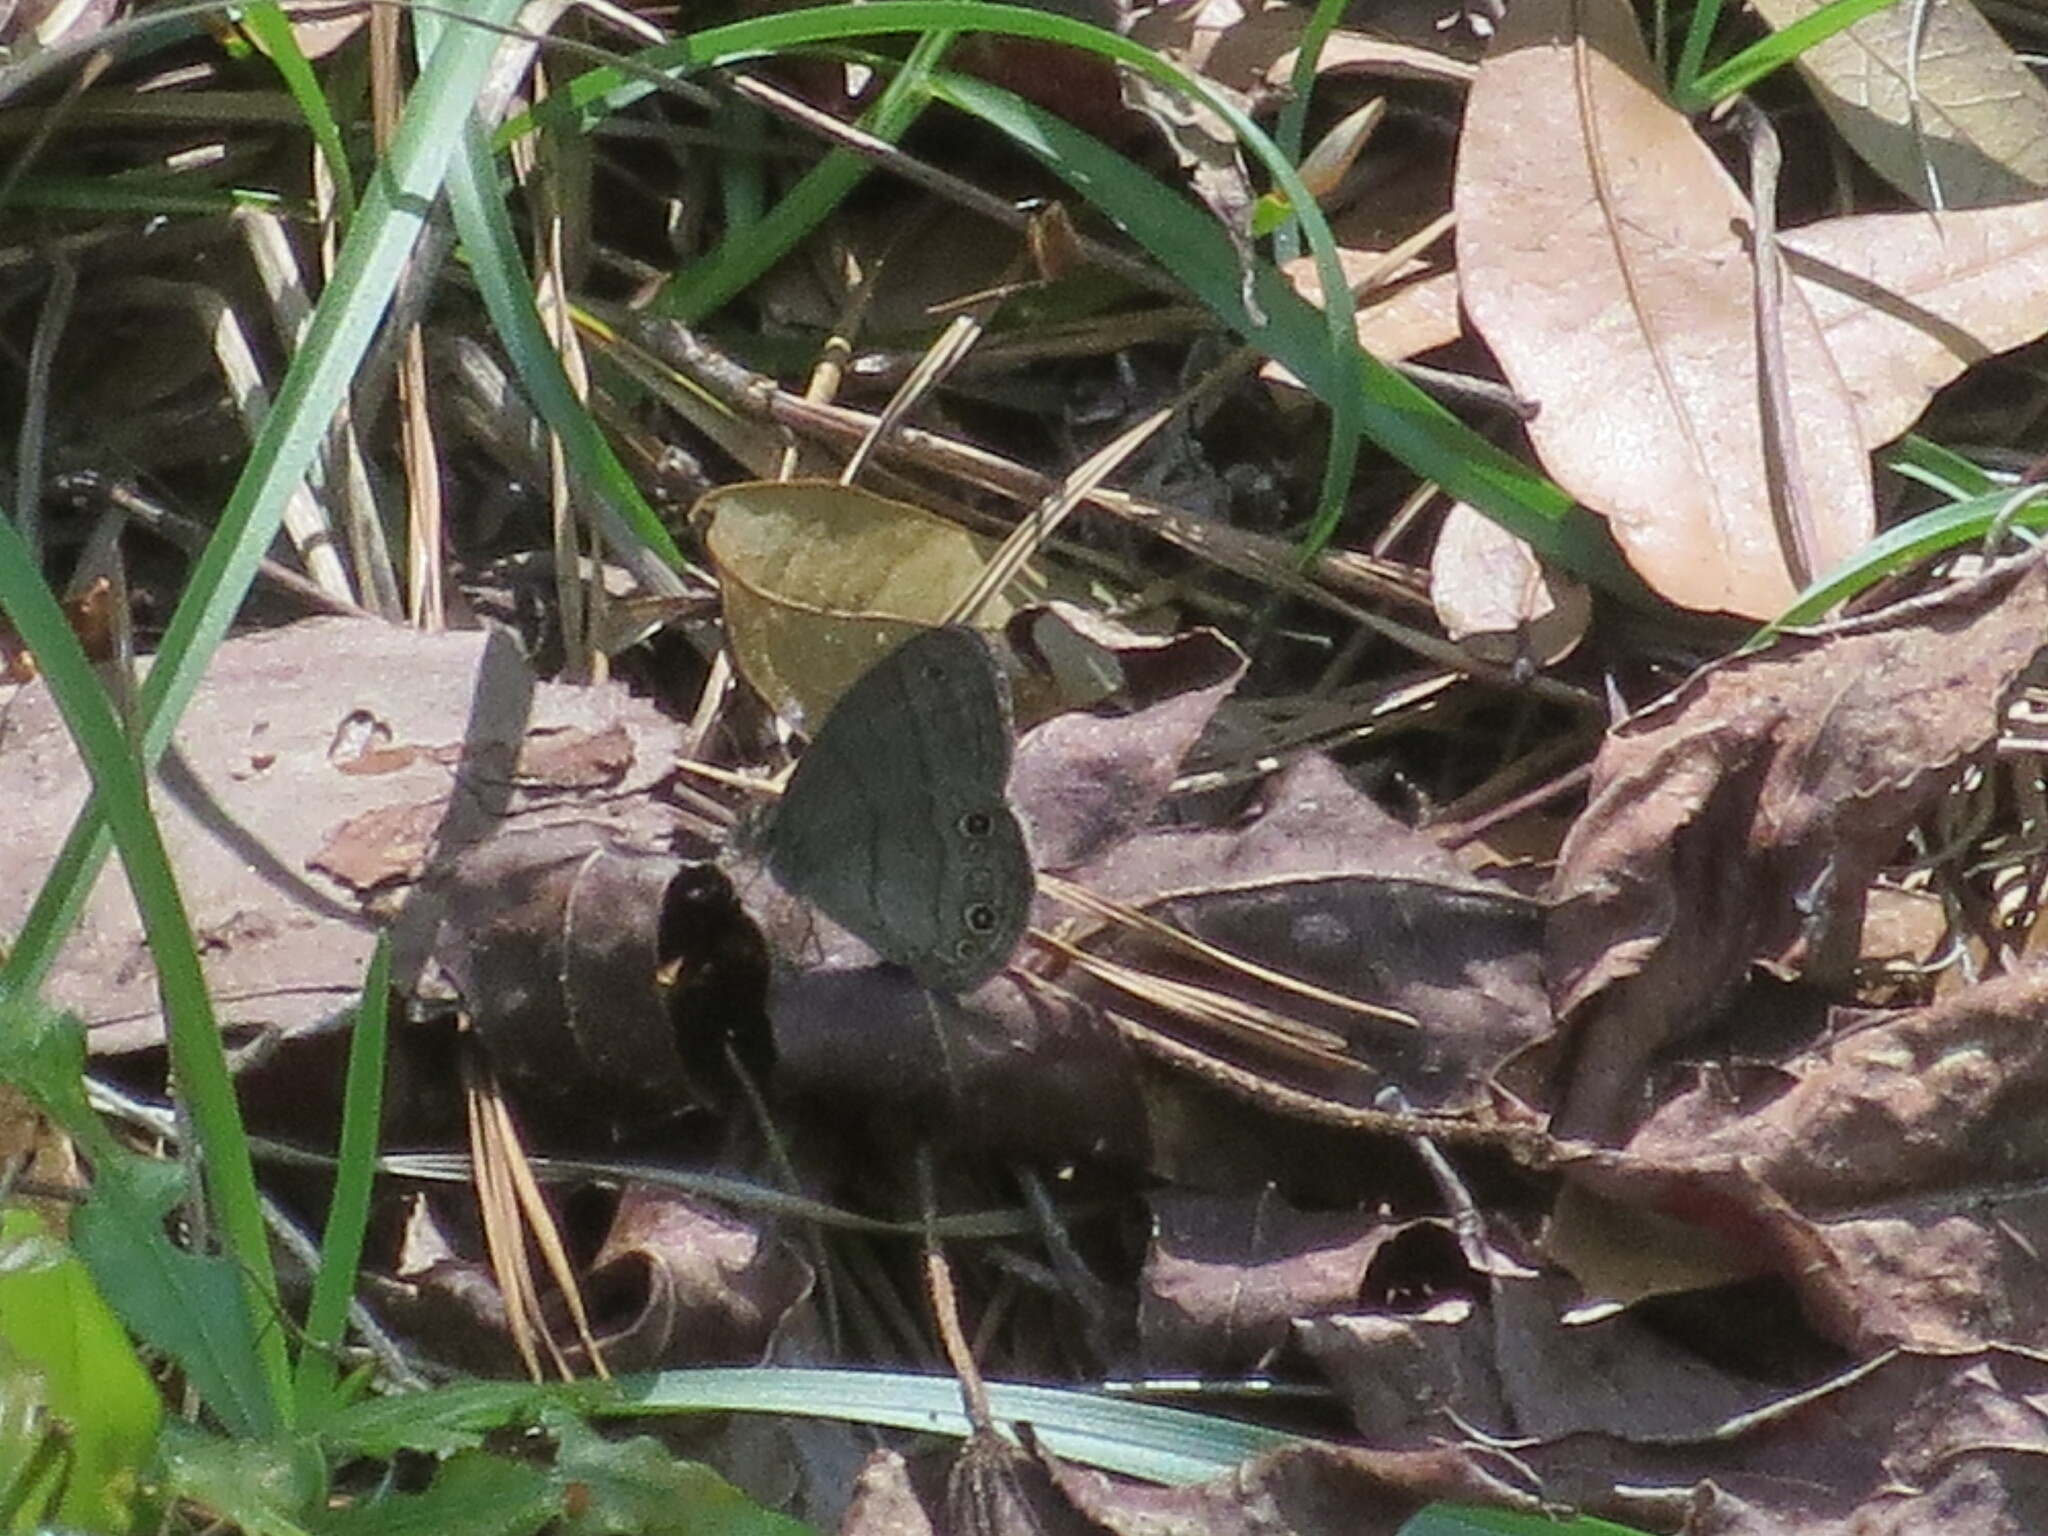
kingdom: Animalia
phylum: Arthropoda
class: Insecta
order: Lepidoptera
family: Nymphalidae
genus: Hermeuptychia
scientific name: Hermeuptychia hermes
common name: Hermes satyr
